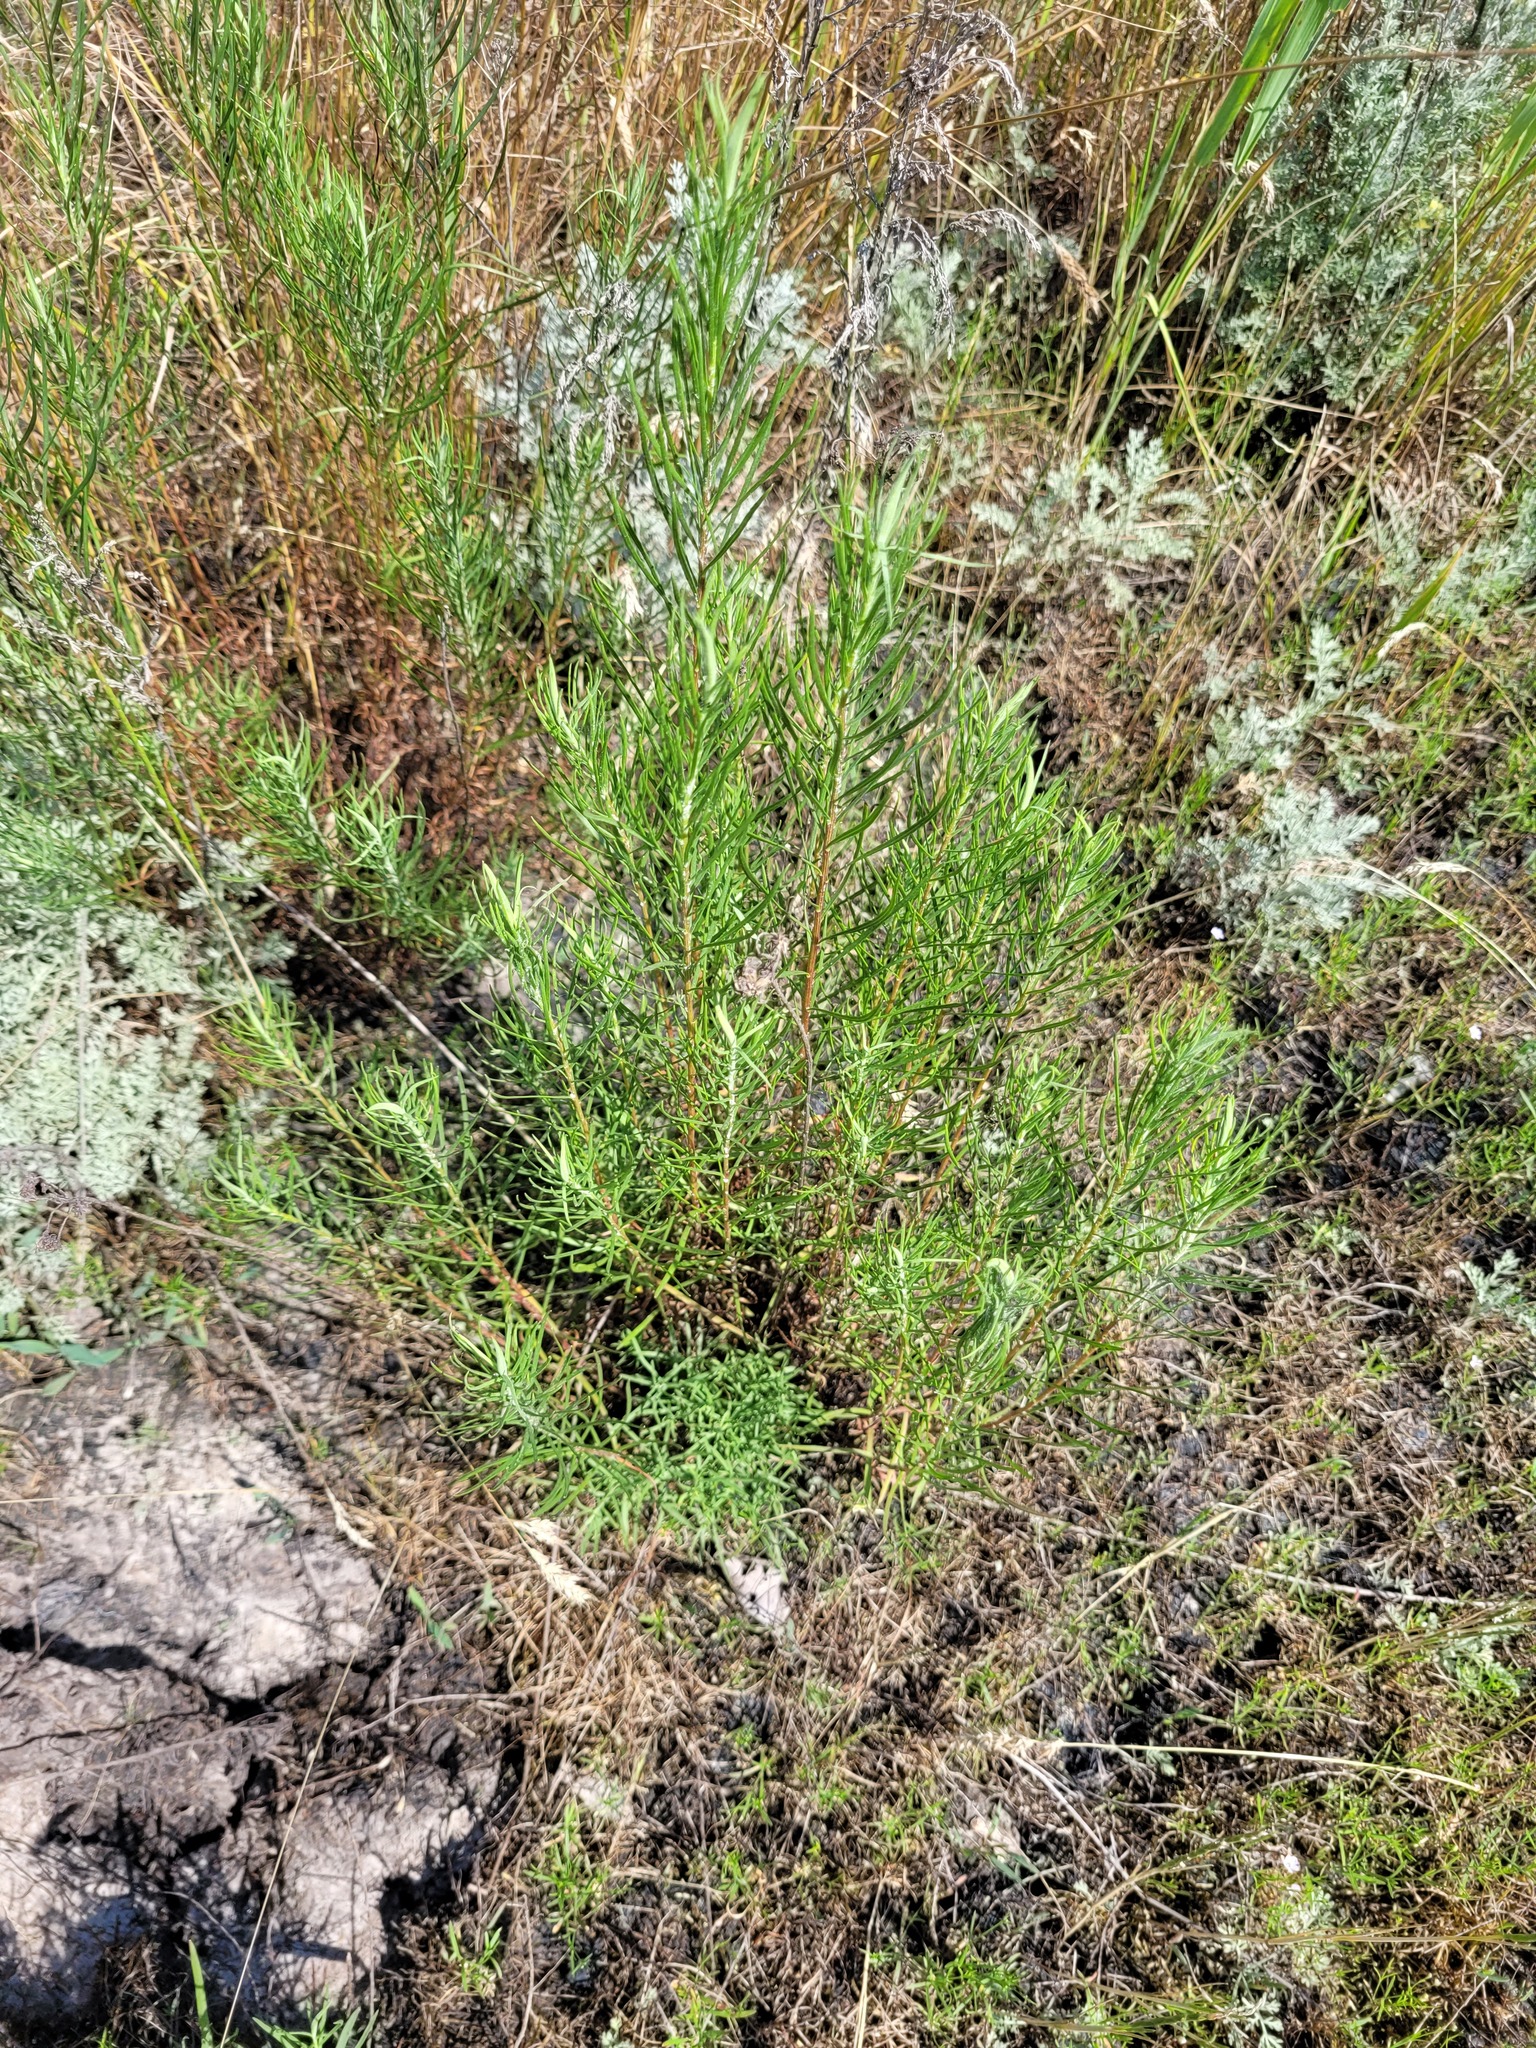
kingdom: Plantae
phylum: Tracheophyta
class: Magnoliopsida
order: Asterales
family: Asteraceae
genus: Galatella
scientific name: Galatella angustissima
